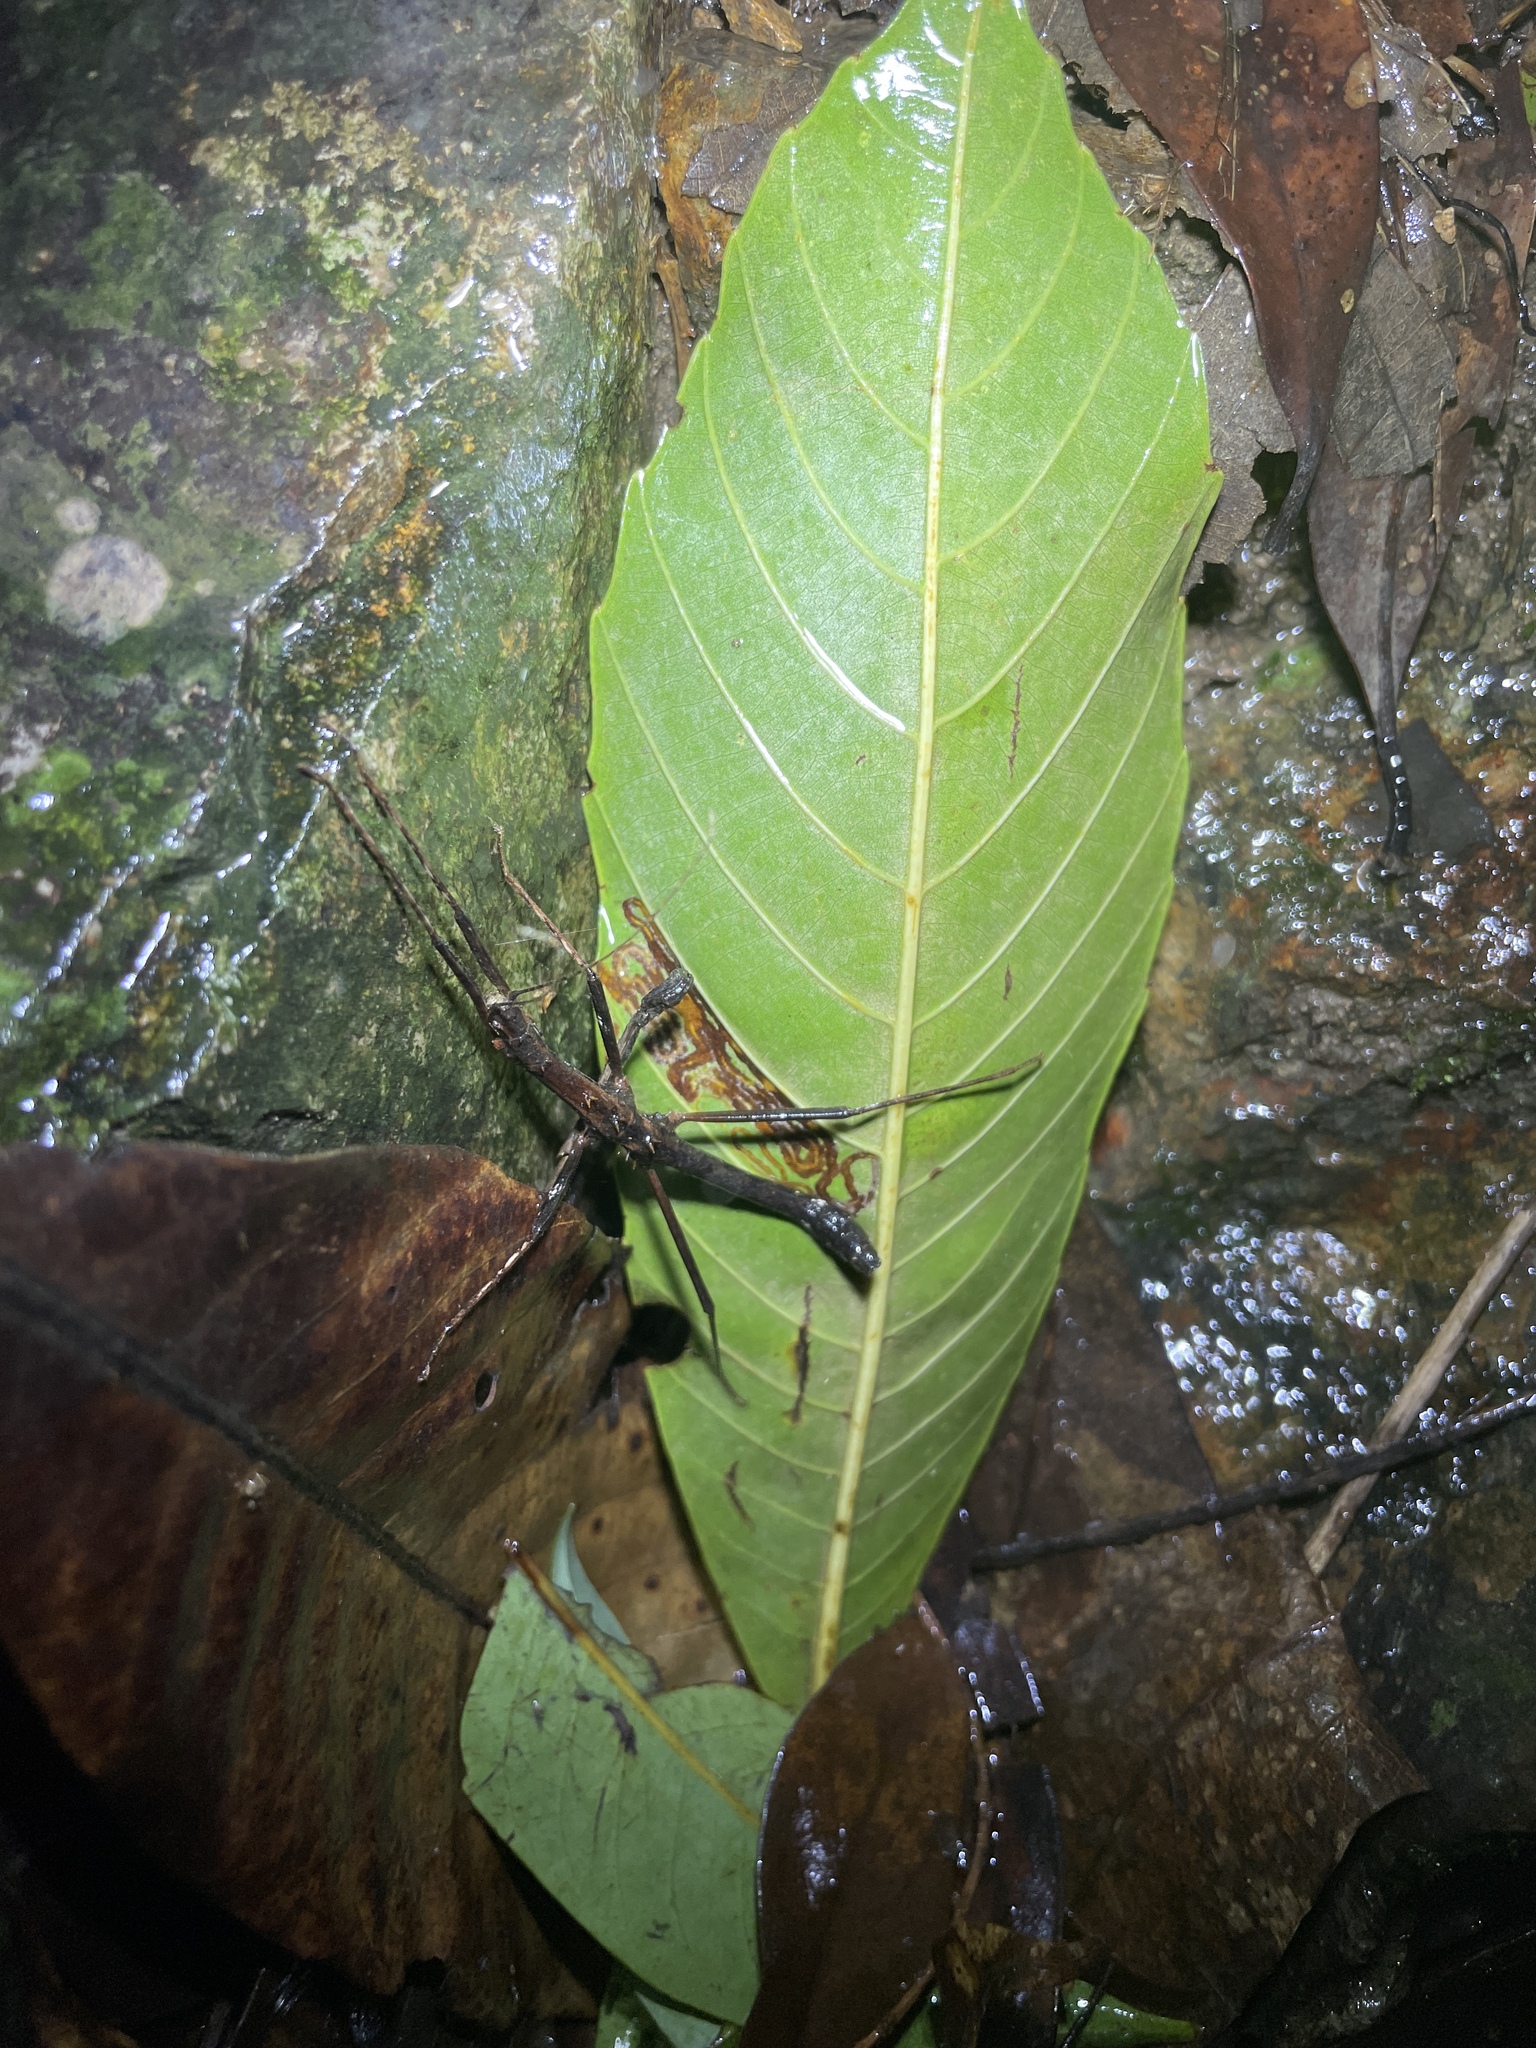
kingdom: Animalia
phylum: Arthropoda
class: Insecta
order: Phasmida
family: Lonchodidae
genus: Neohirasea
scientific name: Neohirasea hongkongensis
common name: Hong kong spiny stick insect
